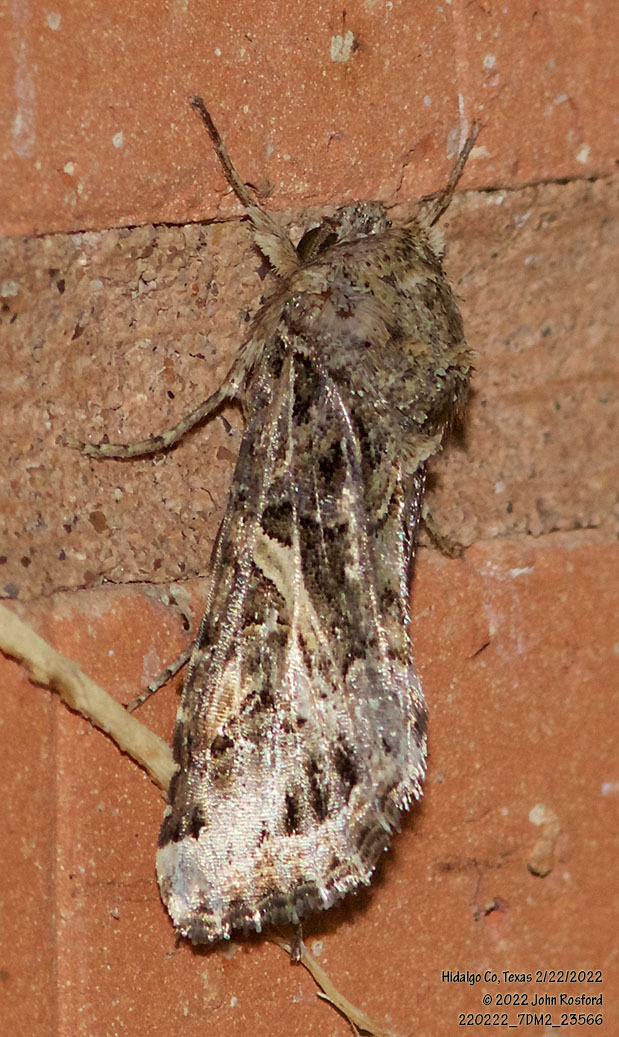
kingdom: Animalia
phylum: Arthropoda
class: Insecta
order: Lepidoptera
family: Noctuidae
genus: Spodoptera
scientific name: Spodoptera ornithogalli
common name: Yellow-striped armyworm
